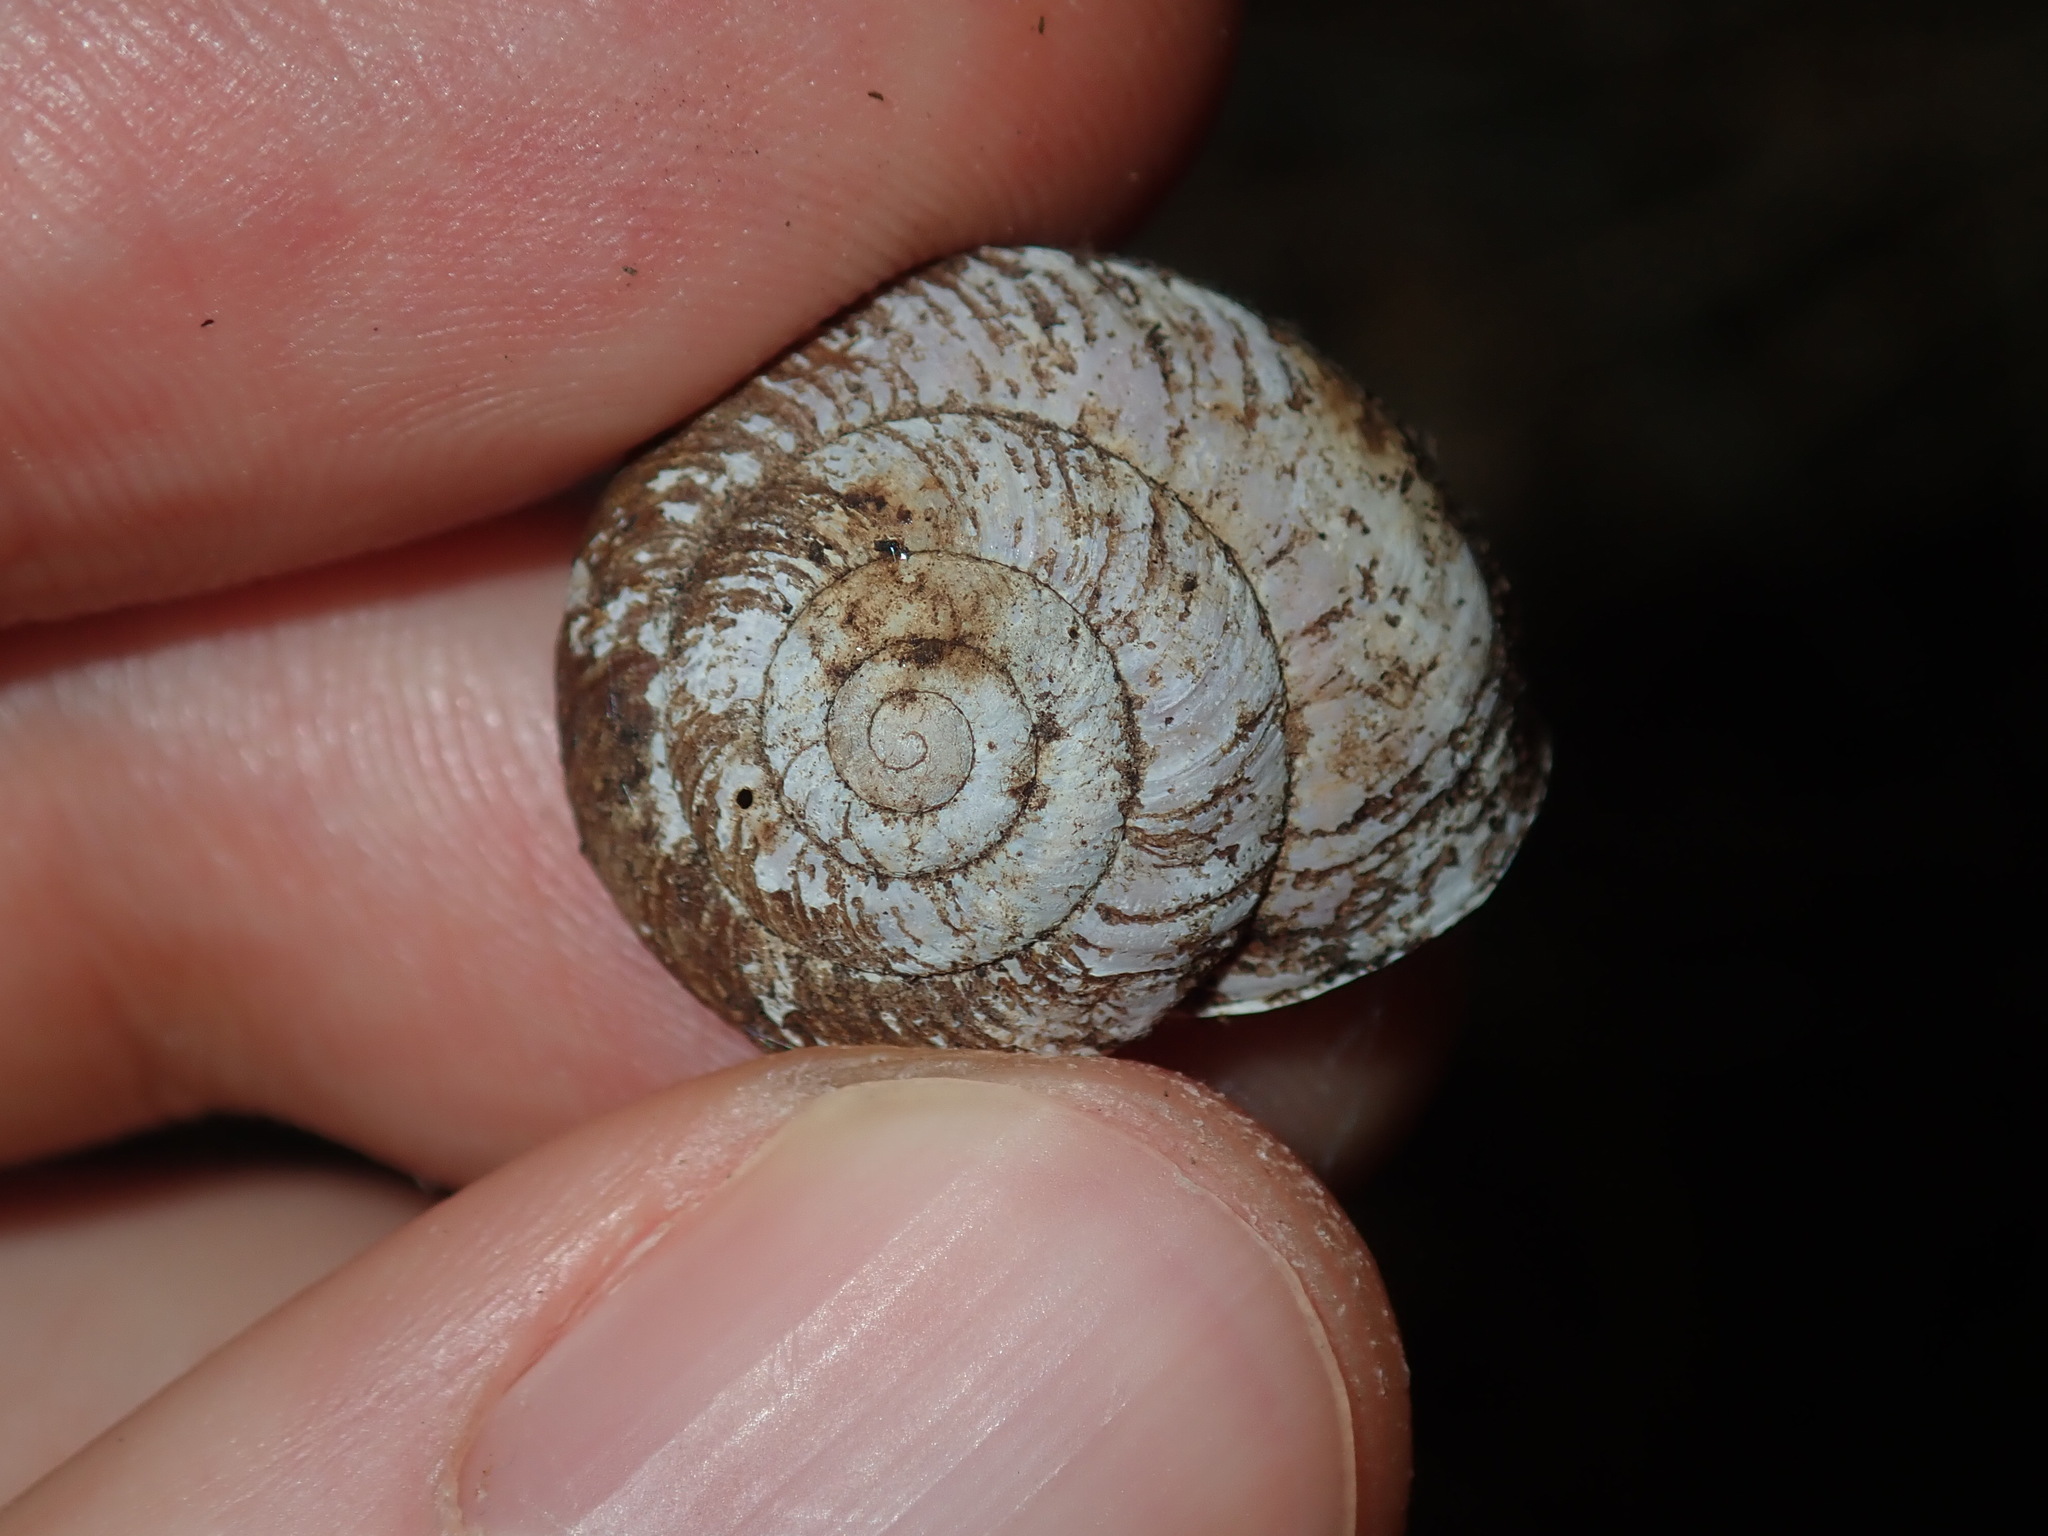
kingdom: Animalia
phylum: Mollusca
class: Gastropoda
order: Stylommatophora
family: Camaenidae
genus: Sauroconcha
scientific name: Sauroconcha sheai
